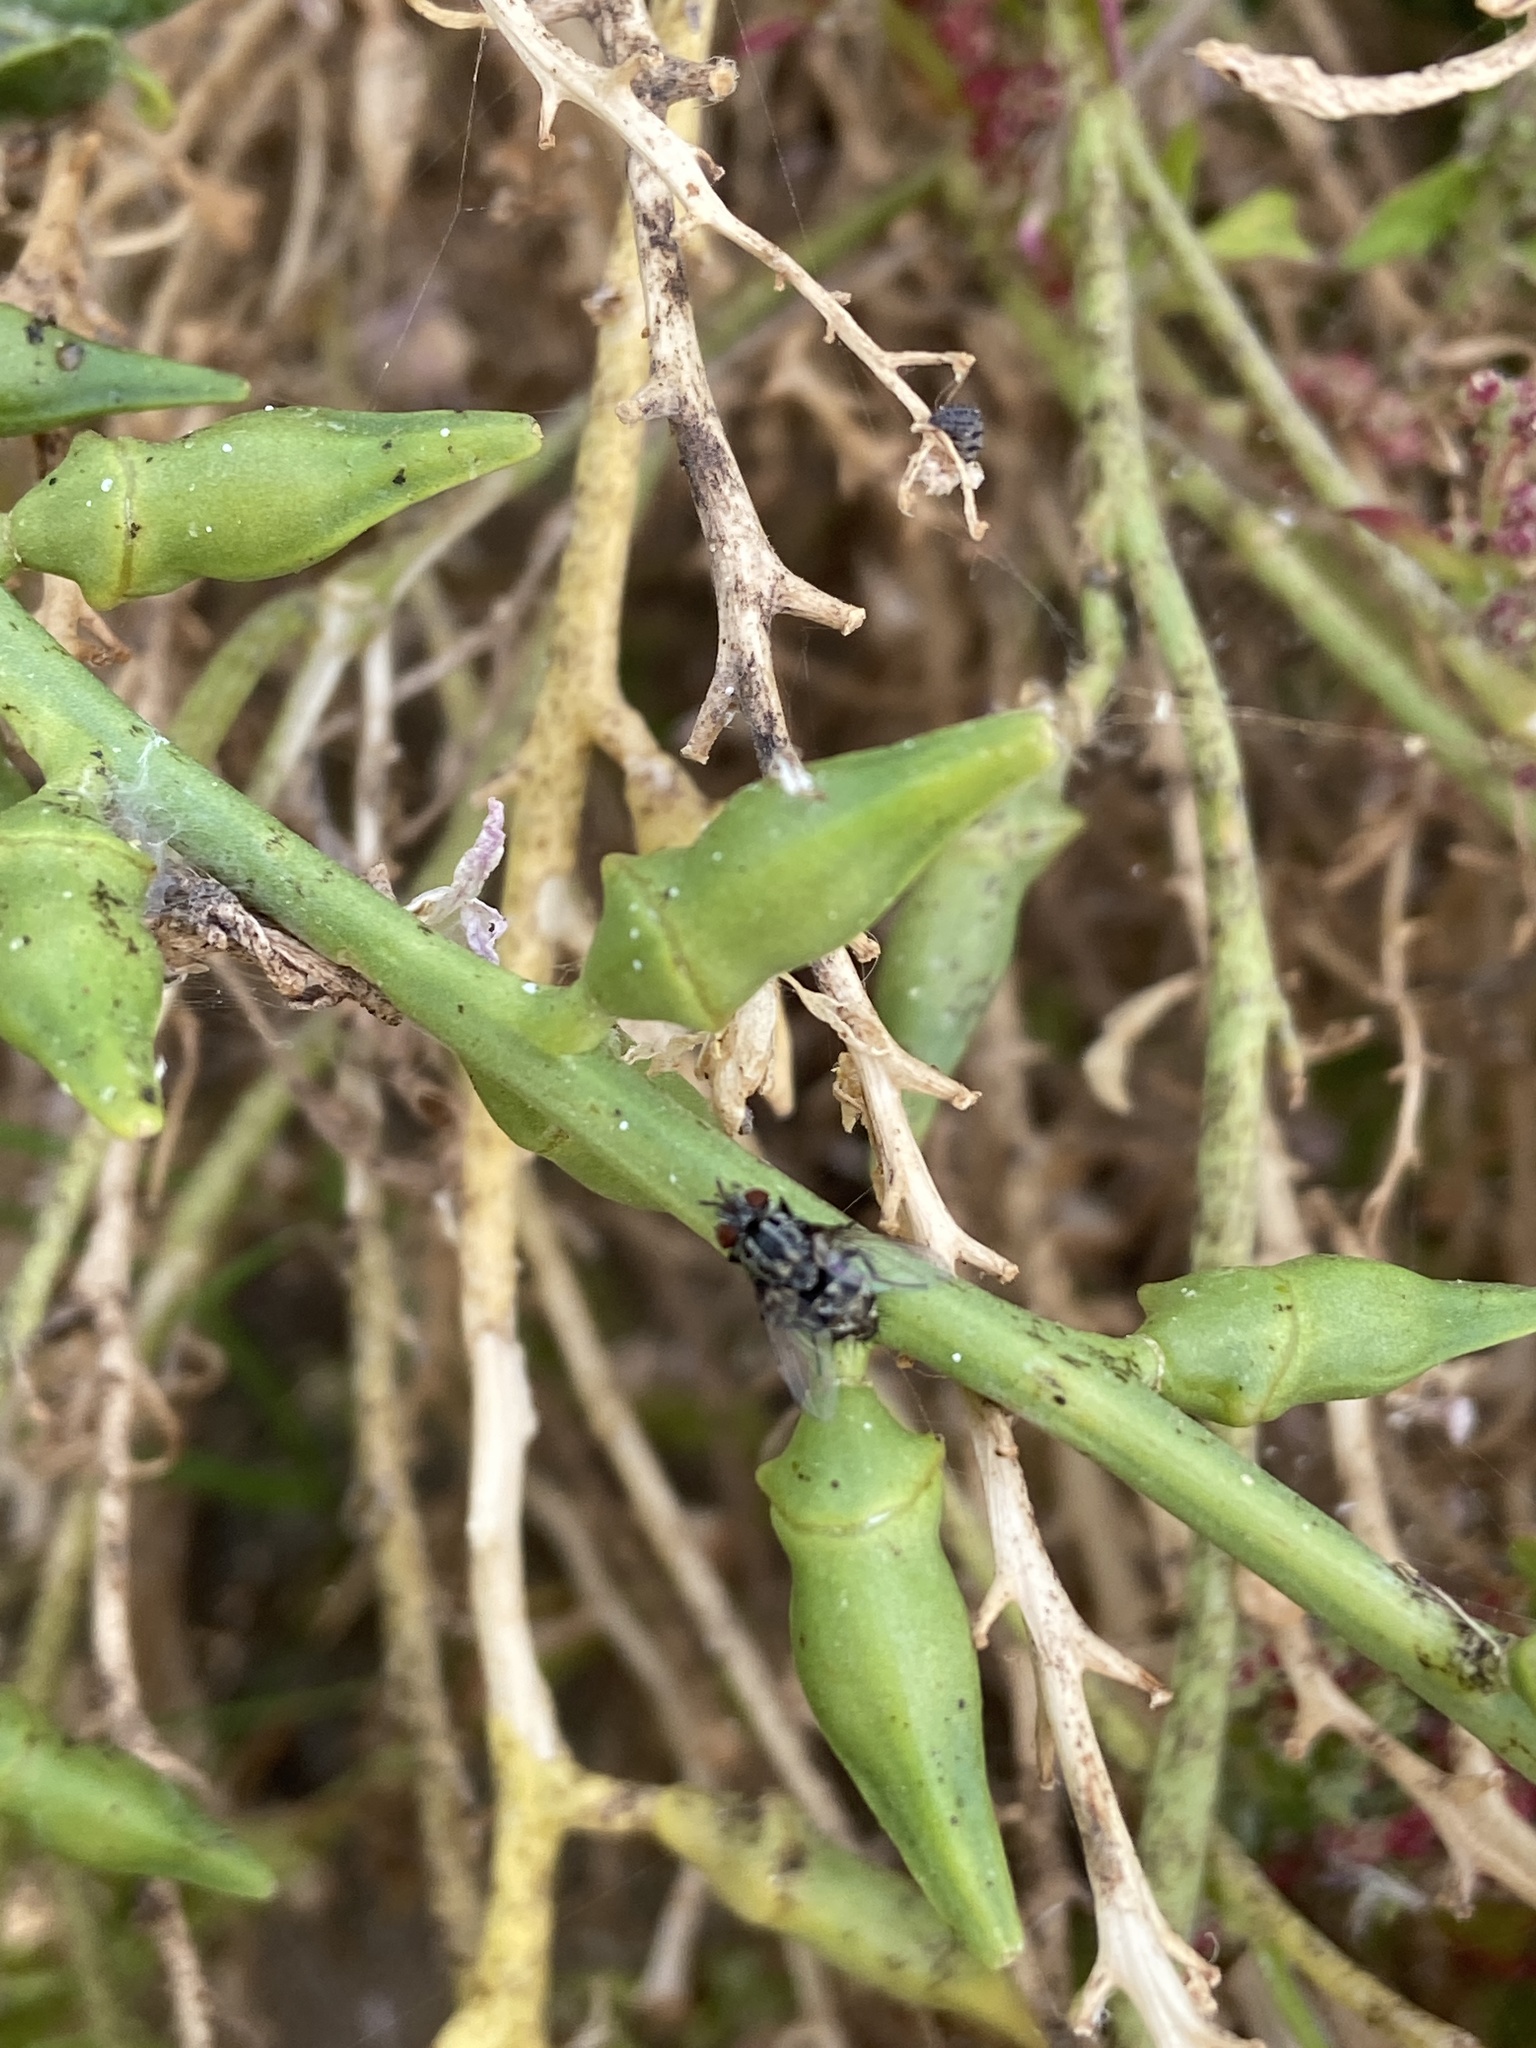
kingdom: Animalia
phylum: Arthropoda
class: Insecta
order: Diptera
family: Tachinidae
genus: Nemorilla
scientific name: Nemorilla maculosa
